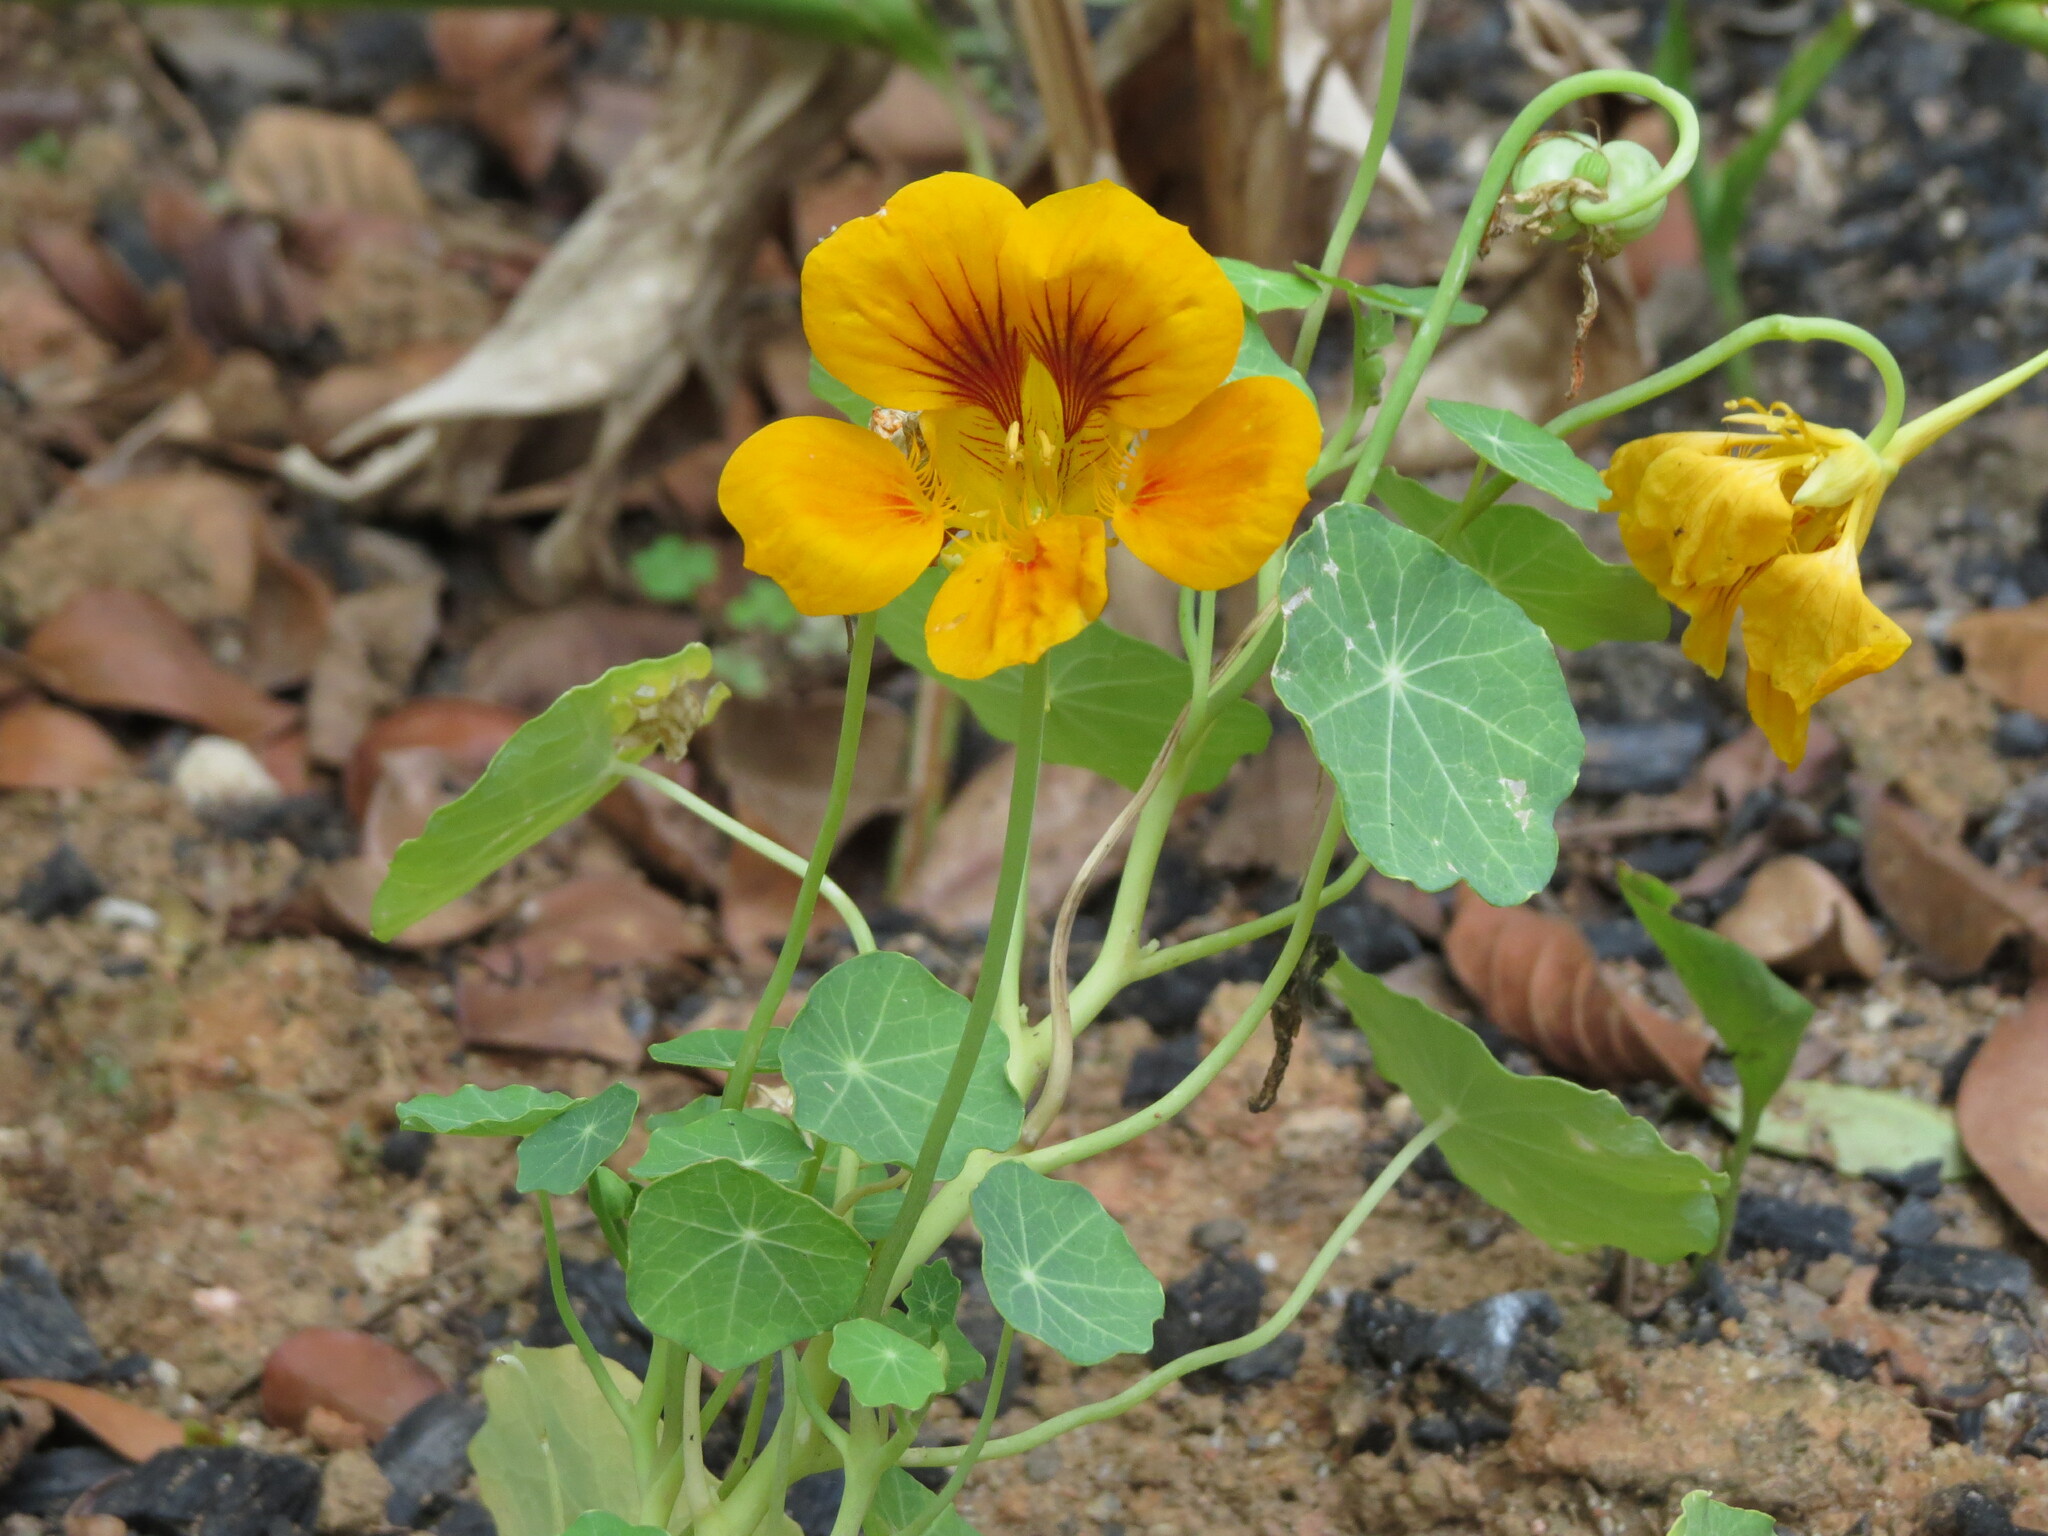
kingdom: Plantae
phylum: Tracheophyta
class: Magnoliopsida
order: Brassicales
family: Tropaeolaceae
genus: Tropaeolum
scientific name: Tropaeolum majus
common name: Nasturtium
